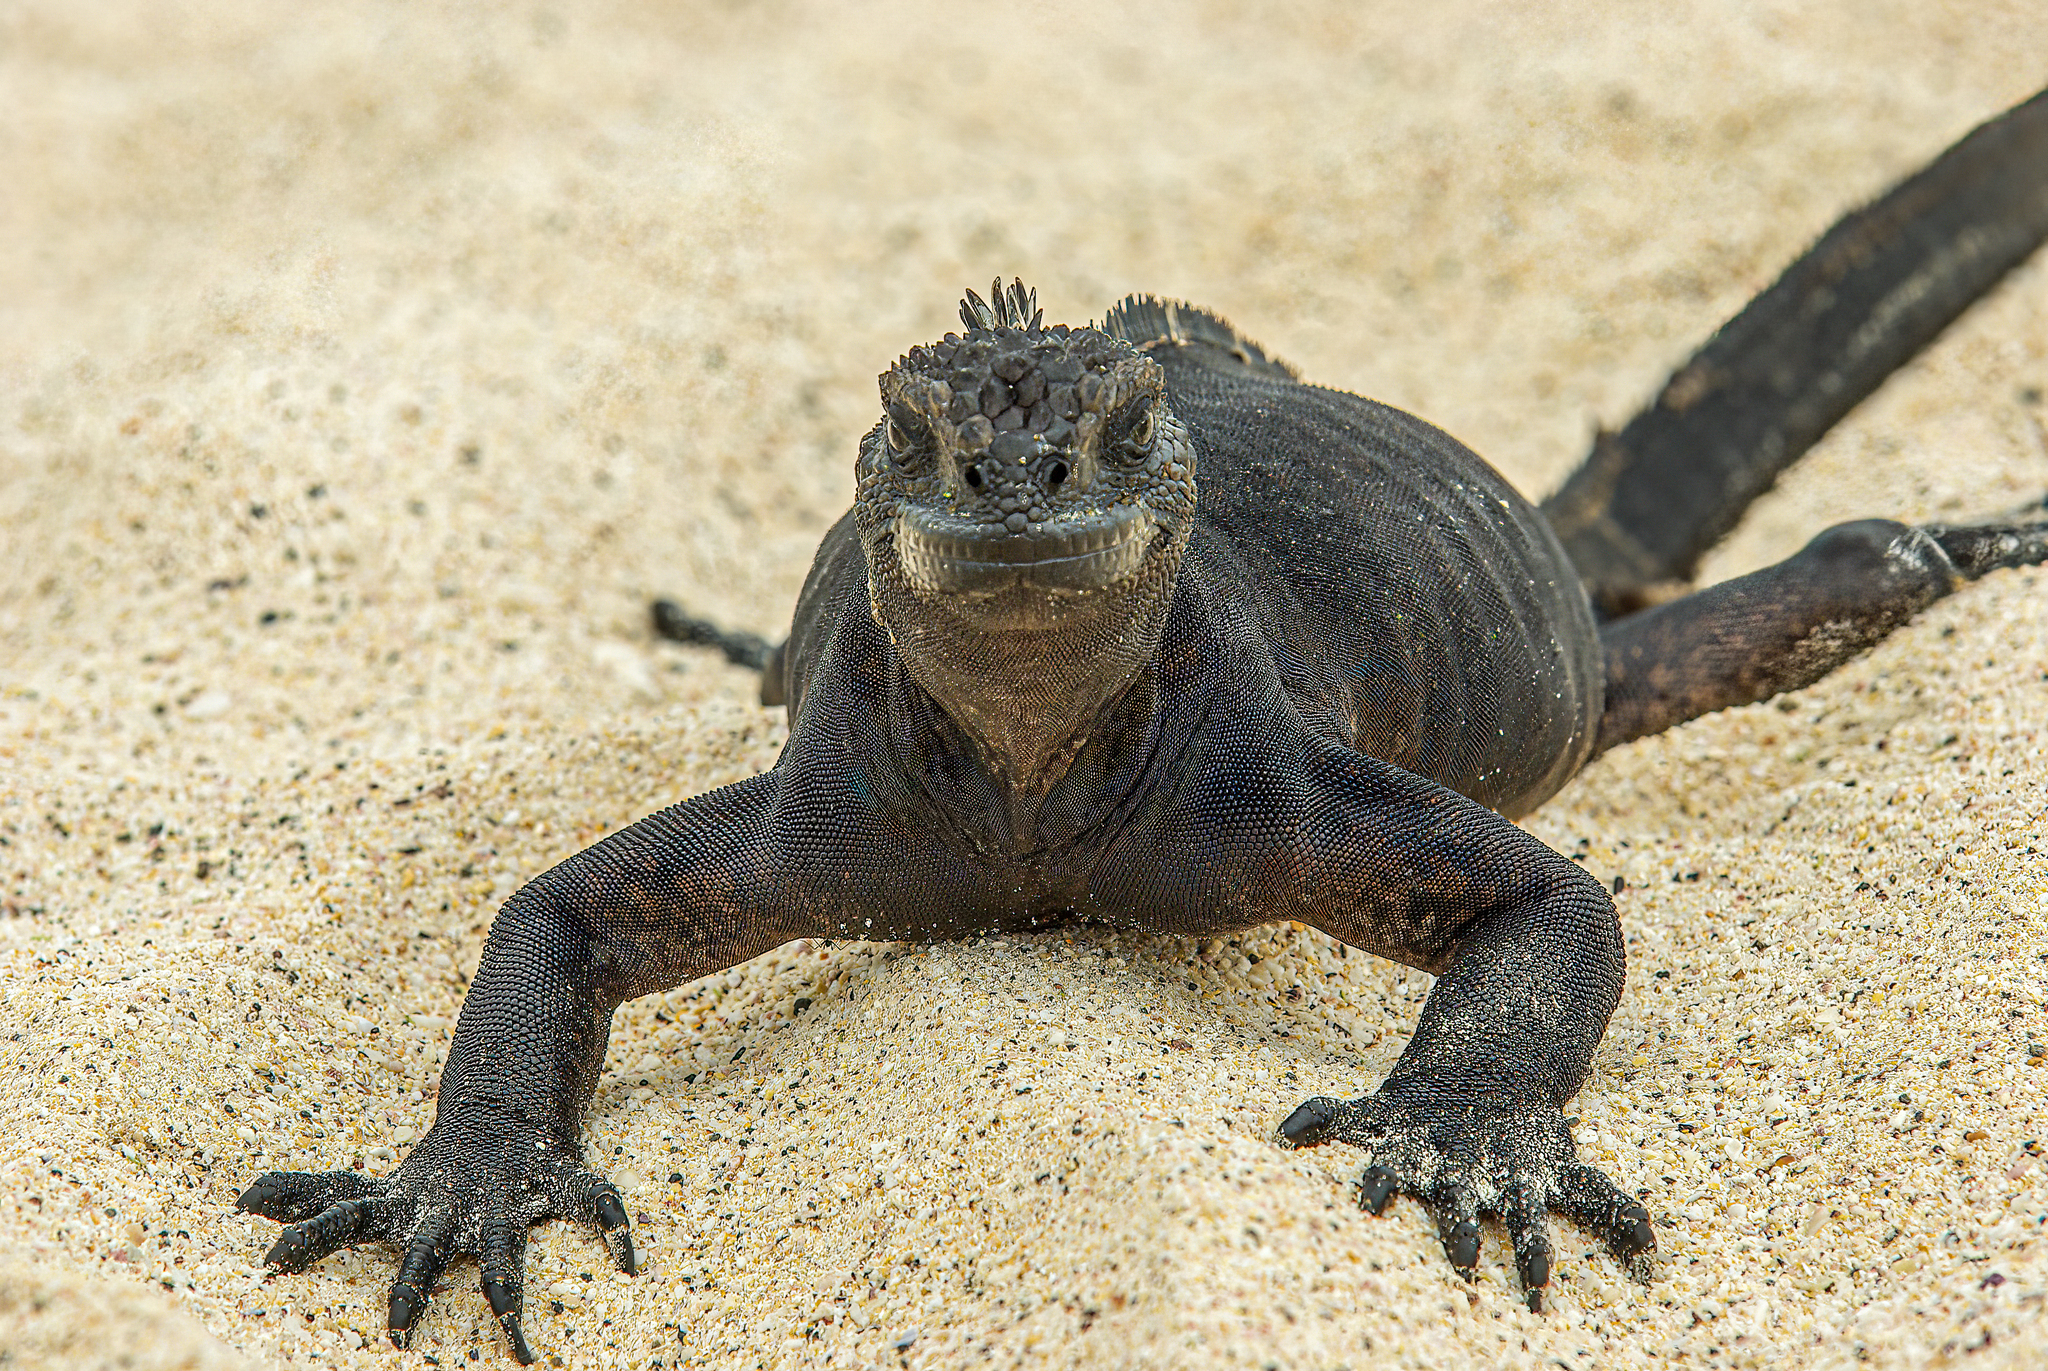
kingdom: Animalia
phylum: Chordata
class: Squamata
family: Iguanidae
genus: Amblyrhynchus
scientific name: Amblyrhynchus cristatus
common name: Marine iguana
